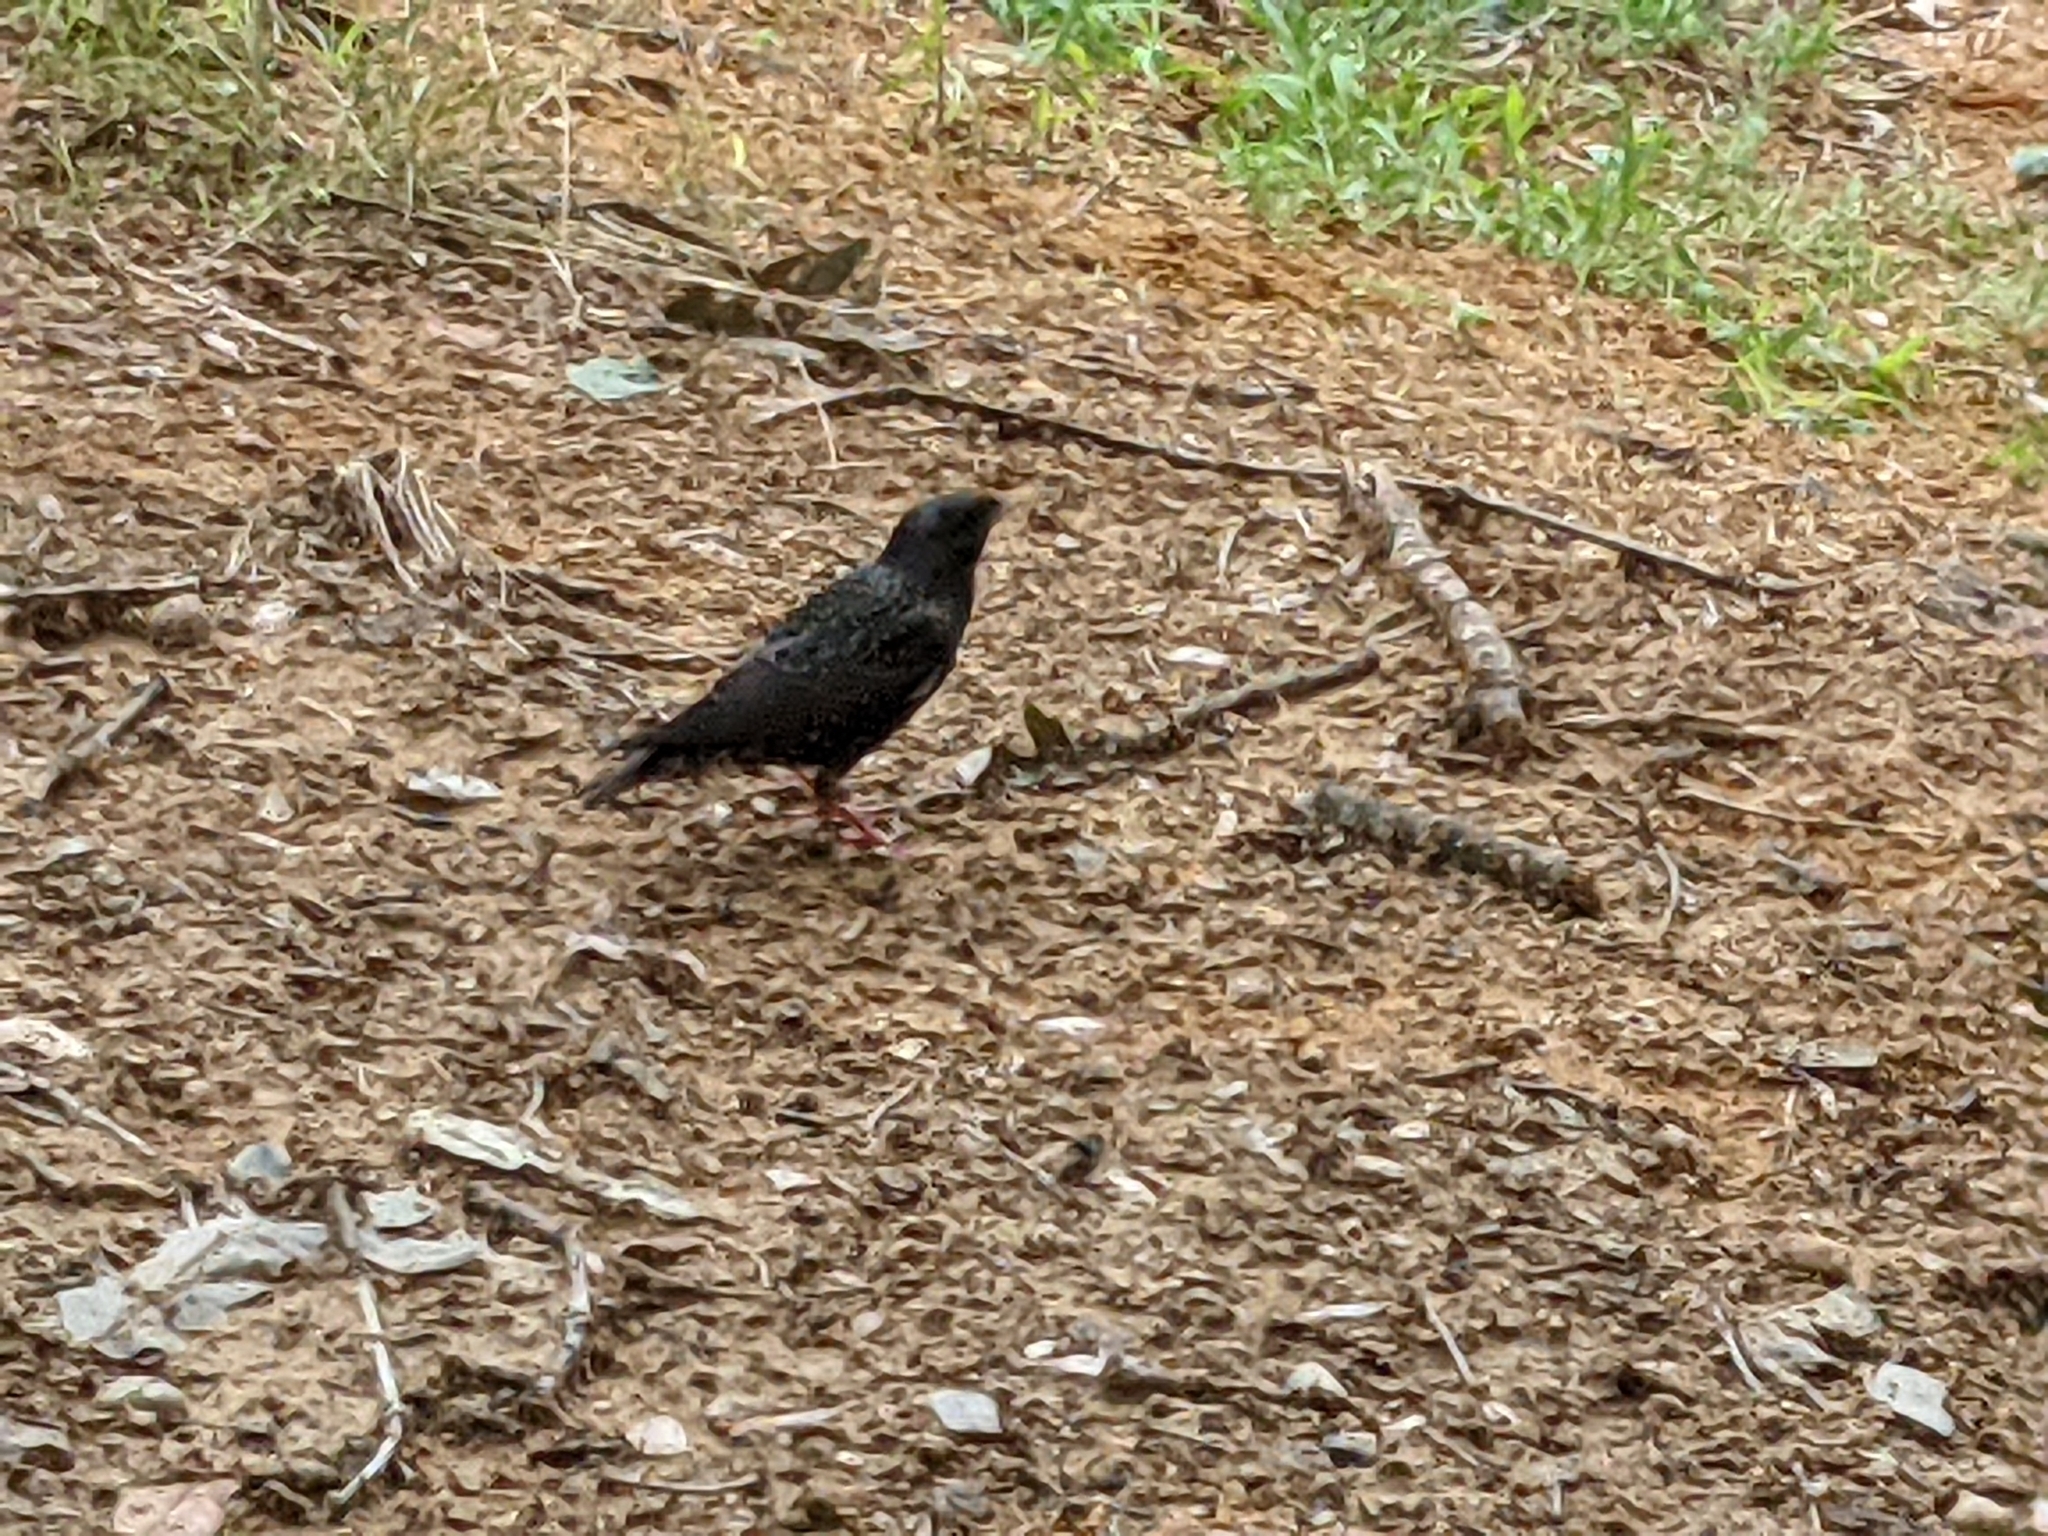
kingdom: Animalia
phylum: Chordata
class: Aves
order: Passeriformes
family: Sturnidae
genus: Sturnus
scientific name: Sturnus vulgaris
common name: Common starling
